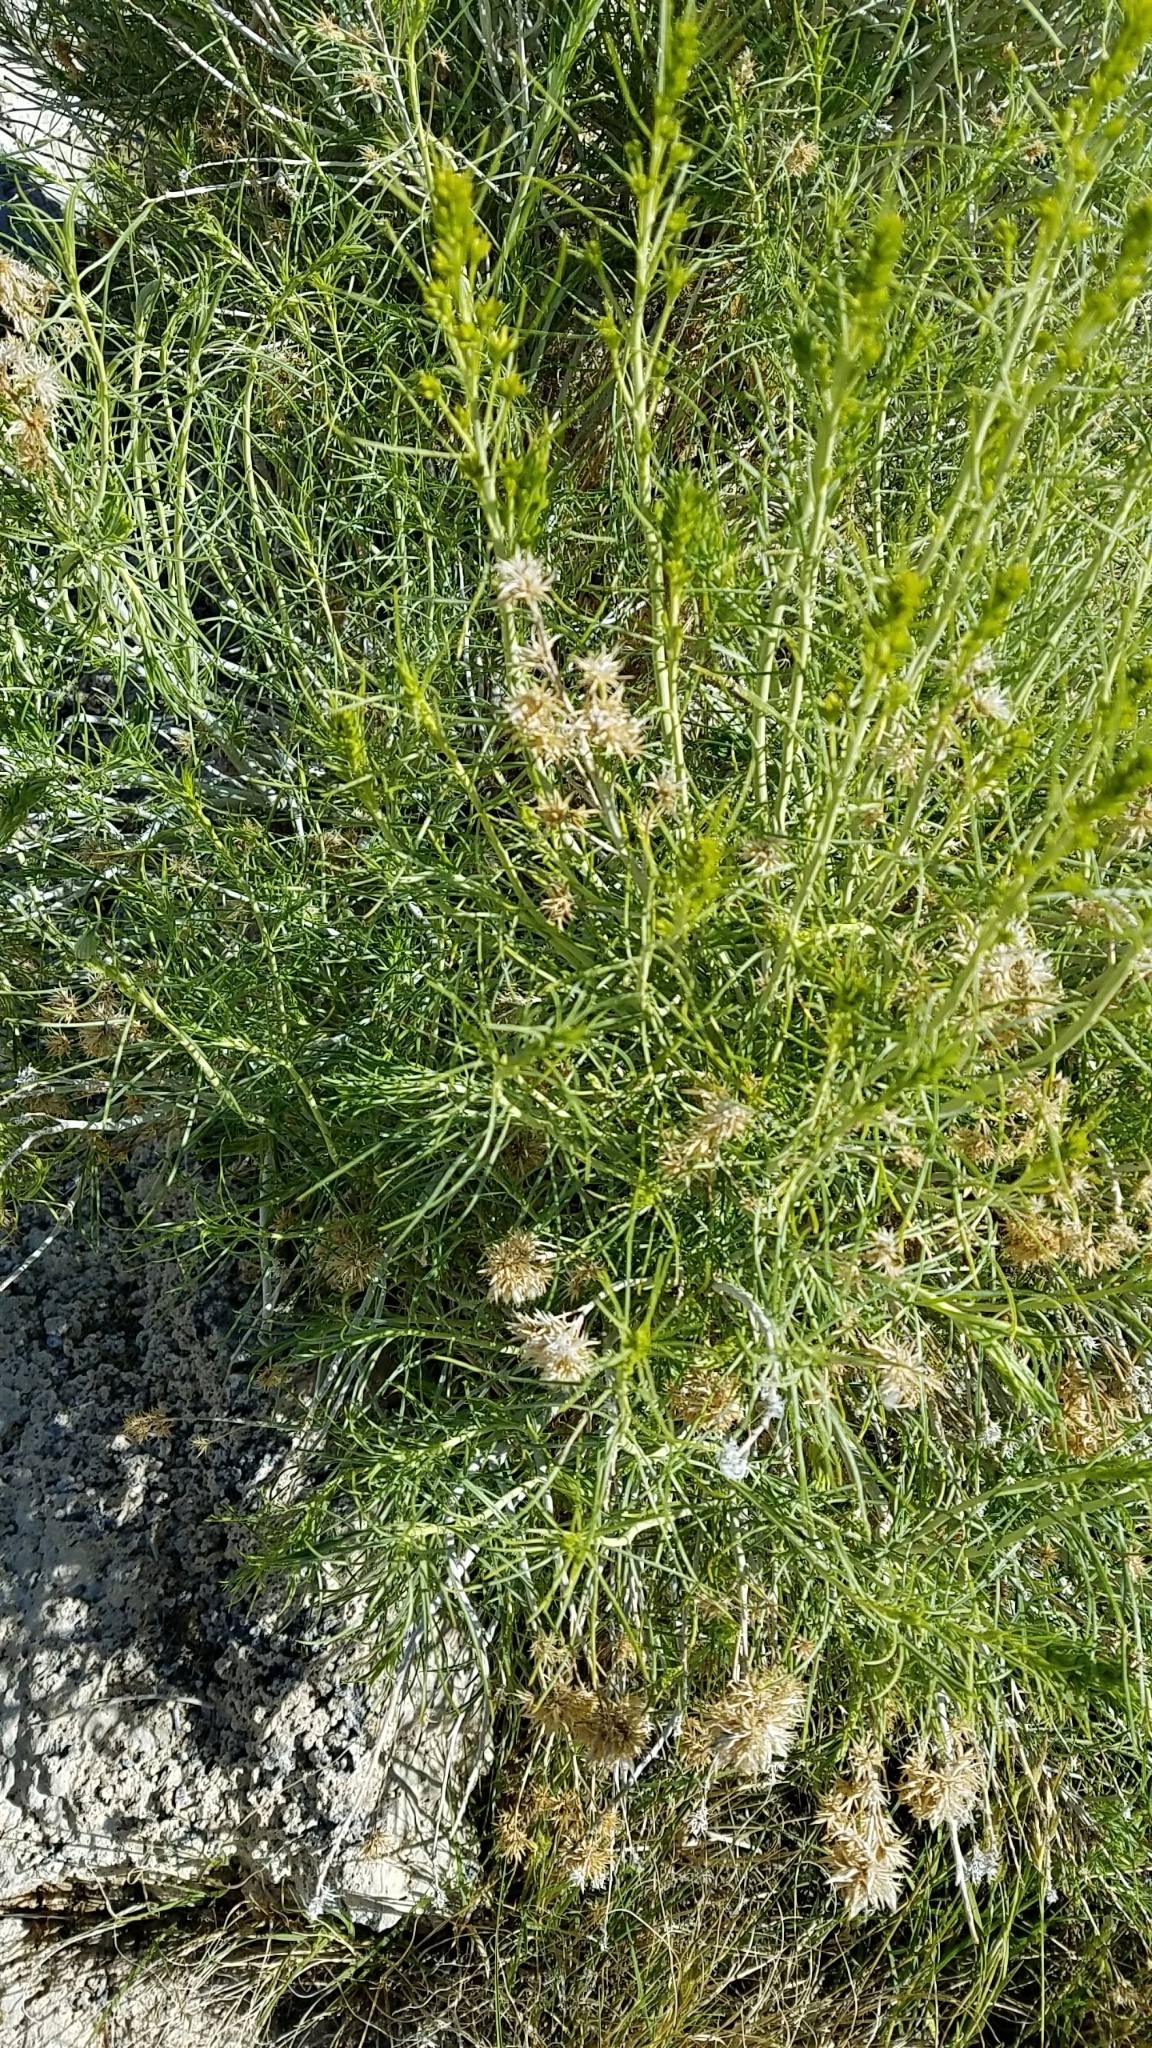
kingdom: Plantae
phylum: Tracheophyta
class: Magnoliopsida
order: Asterales
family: Asteraceae
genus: Ericameria
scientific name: Ericameria nauseosa
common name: Rubber rabbitbrush
